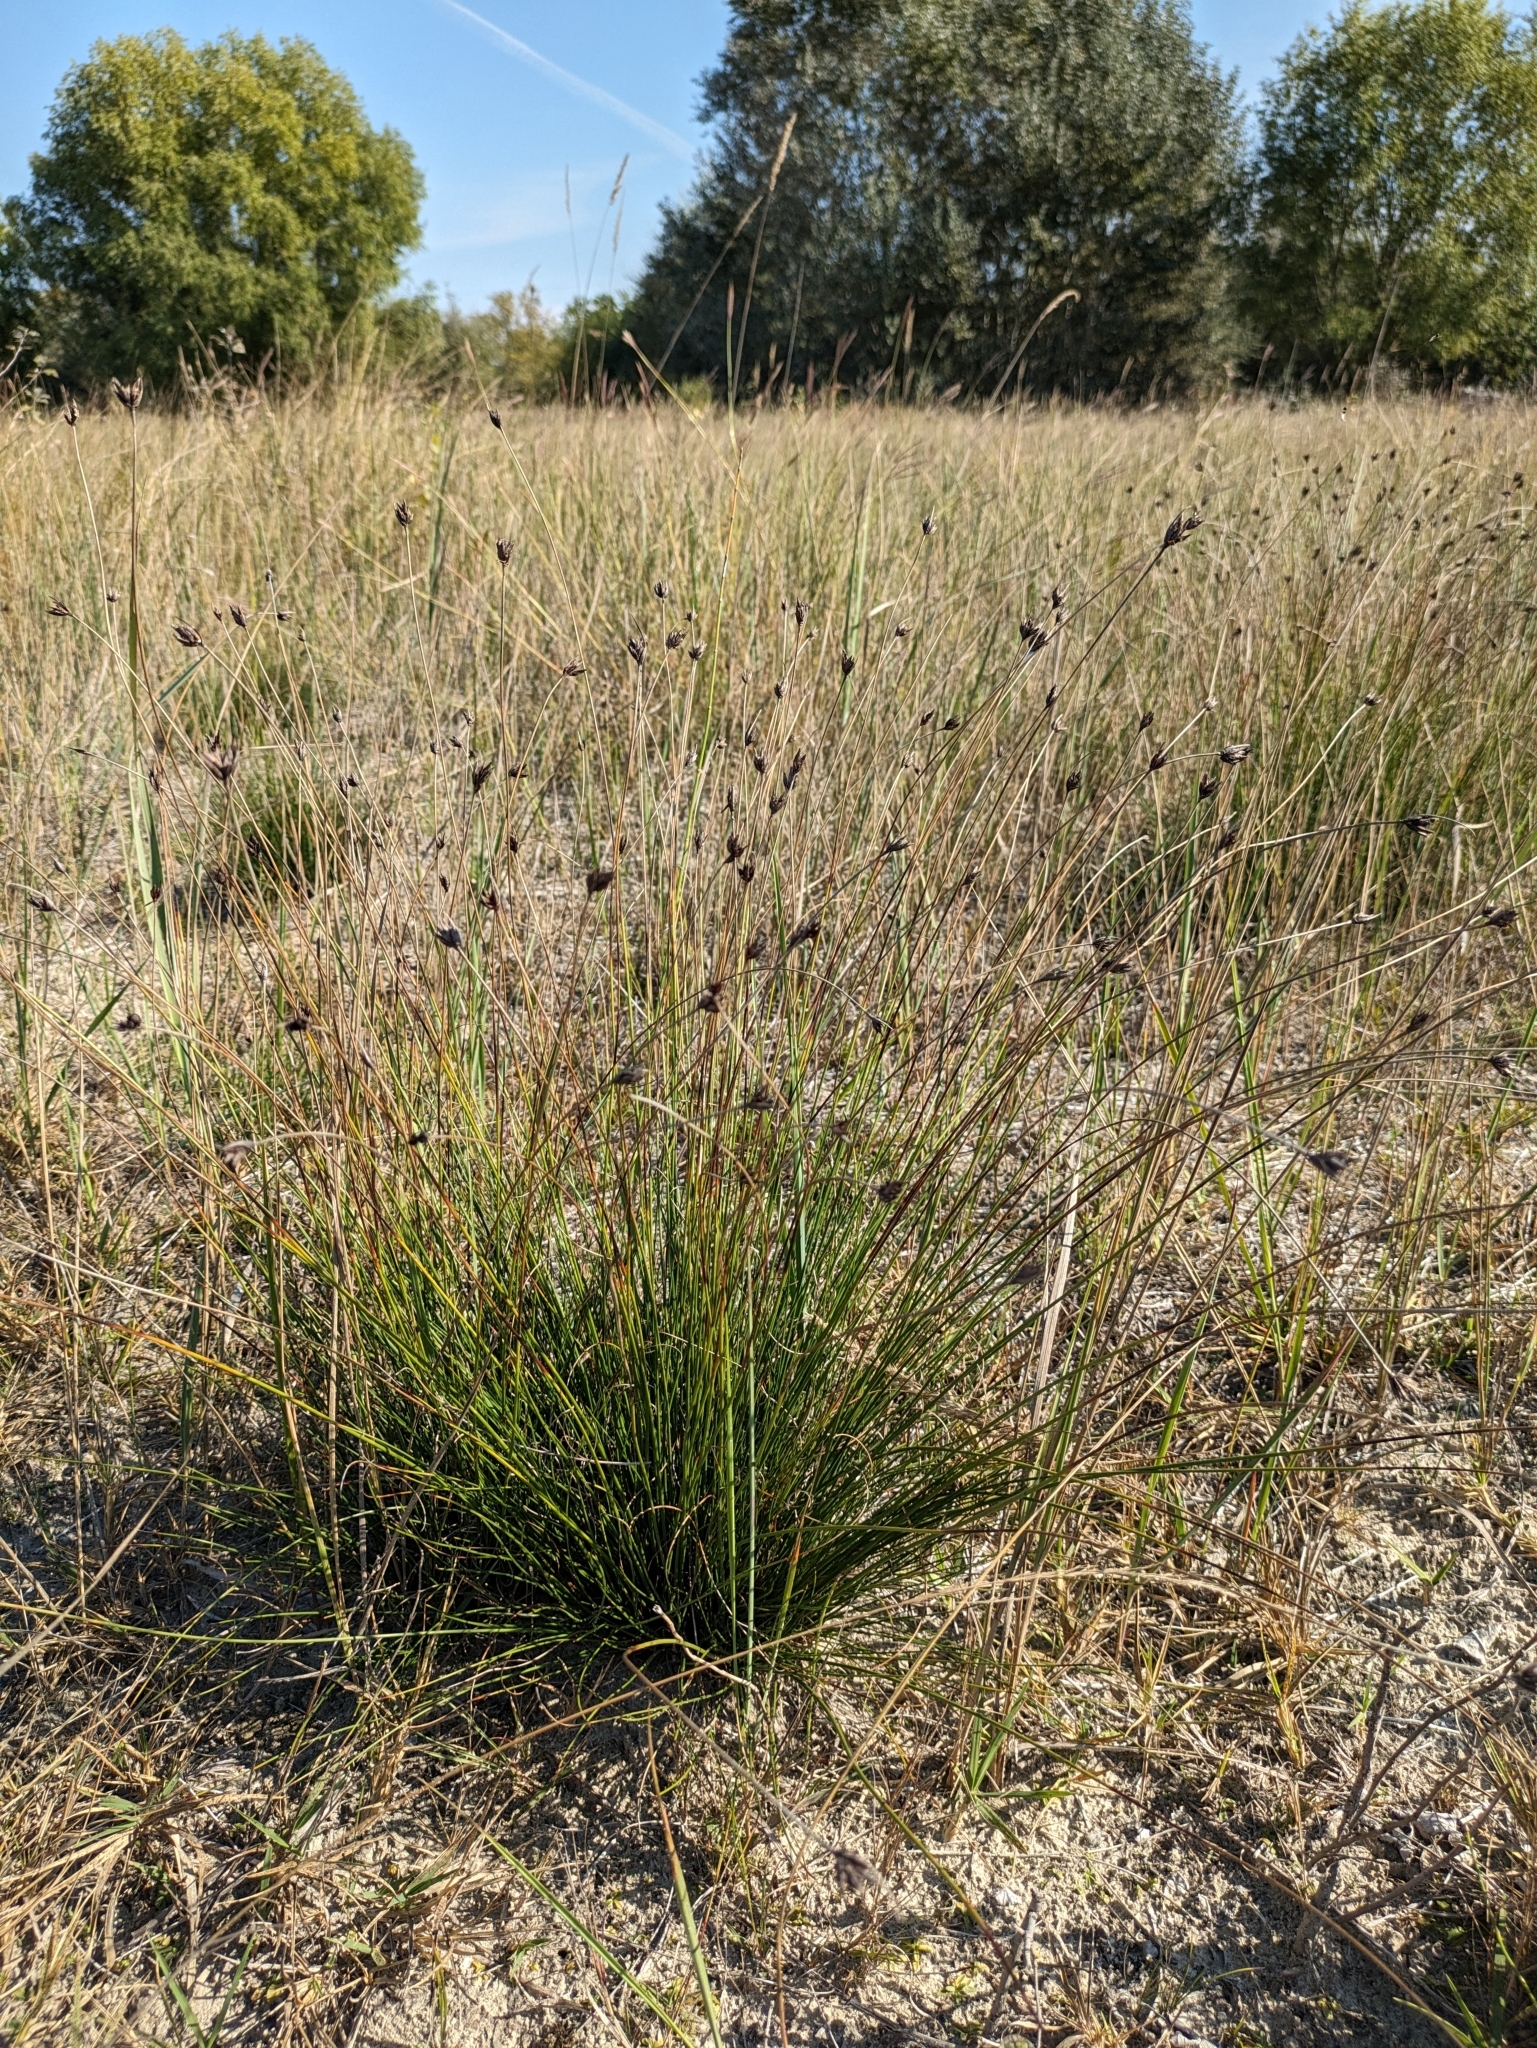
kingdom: Plantae
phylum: Tracheophyta
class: Liliopsida
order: Poales
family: Cyperaceae
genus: Schoenus
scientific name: Schoenus nigricans
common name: Black bog-rush
